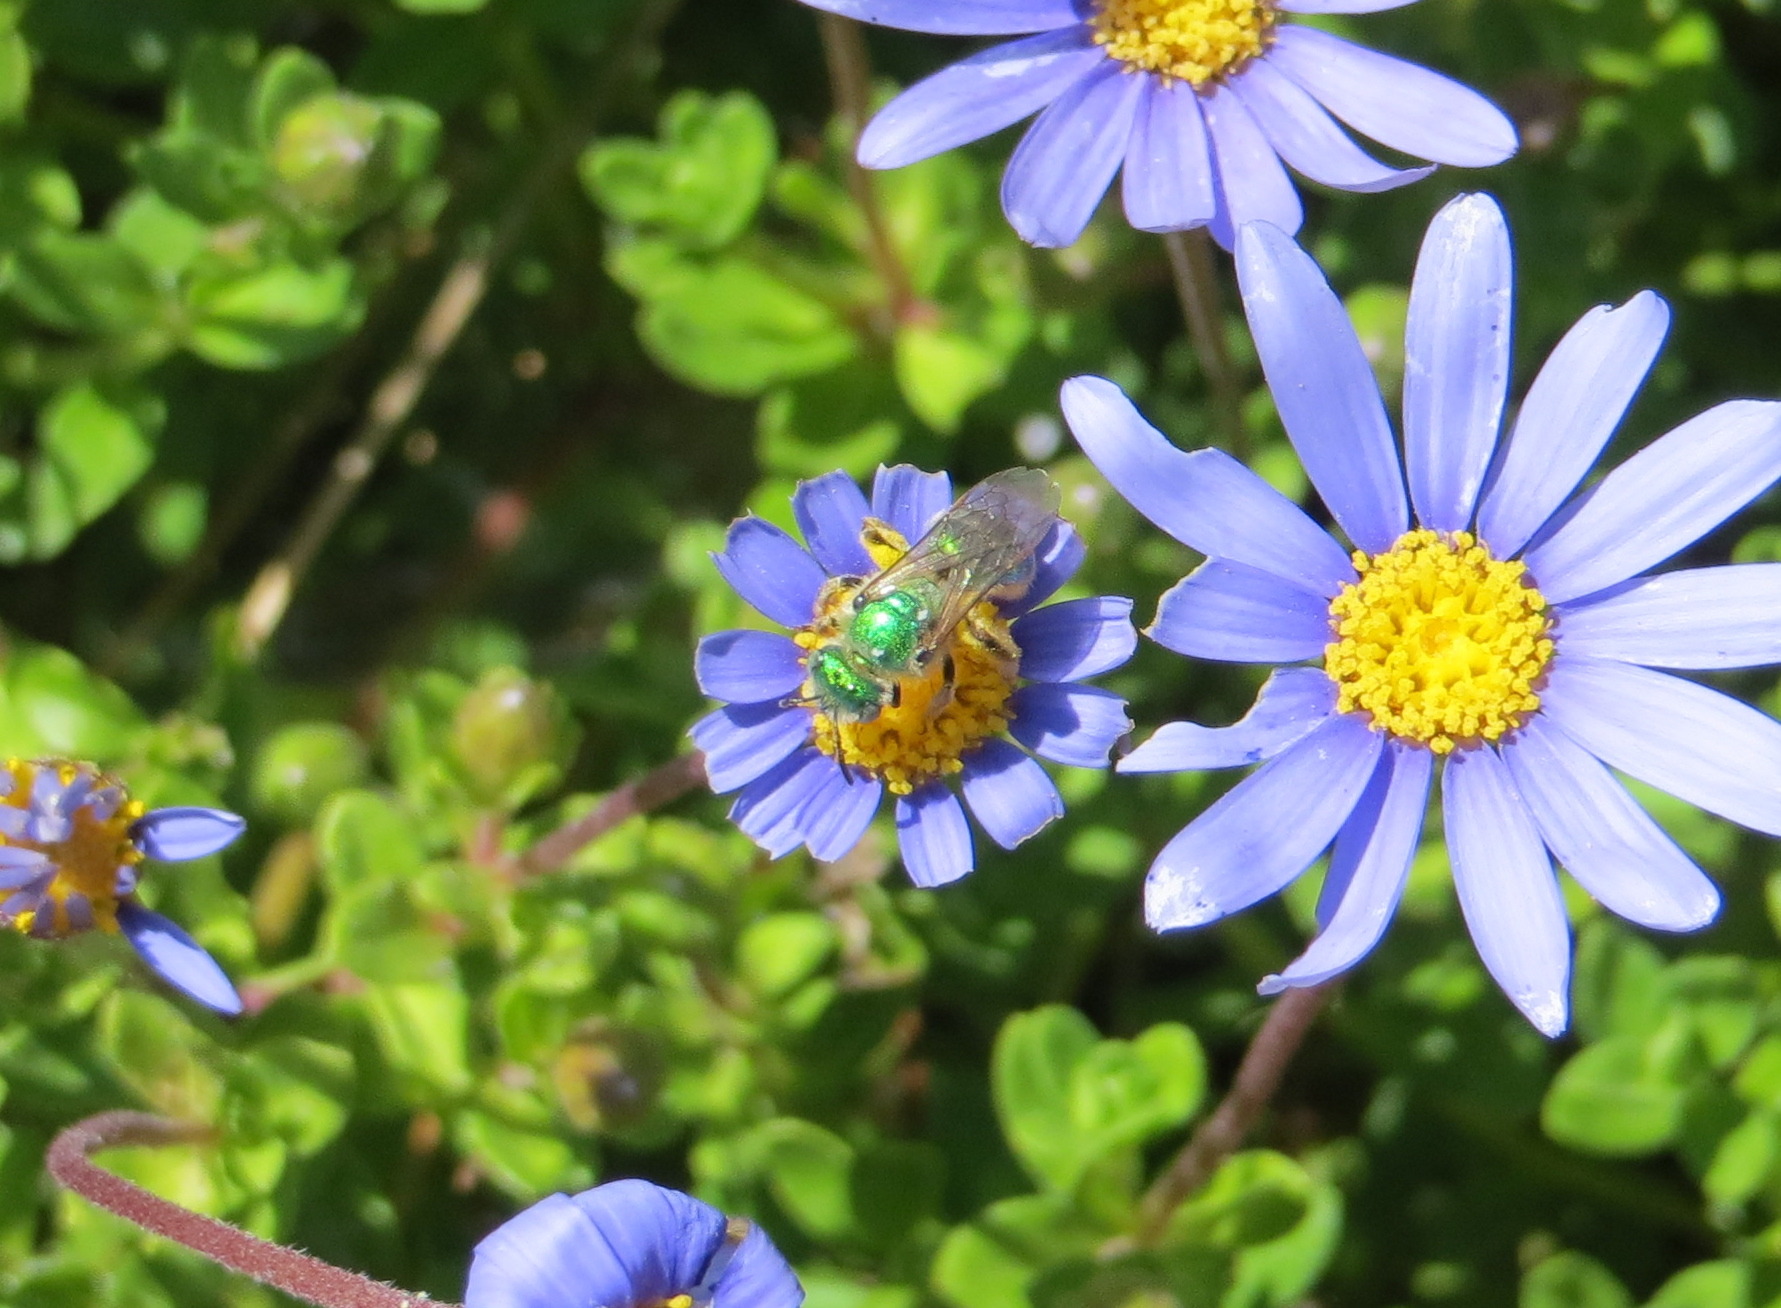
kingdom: Animalia
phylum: Arthropoda
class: Insecta
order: Hymenoptera
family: Halictidae
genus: Agapostemon
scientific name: Agapostemon
